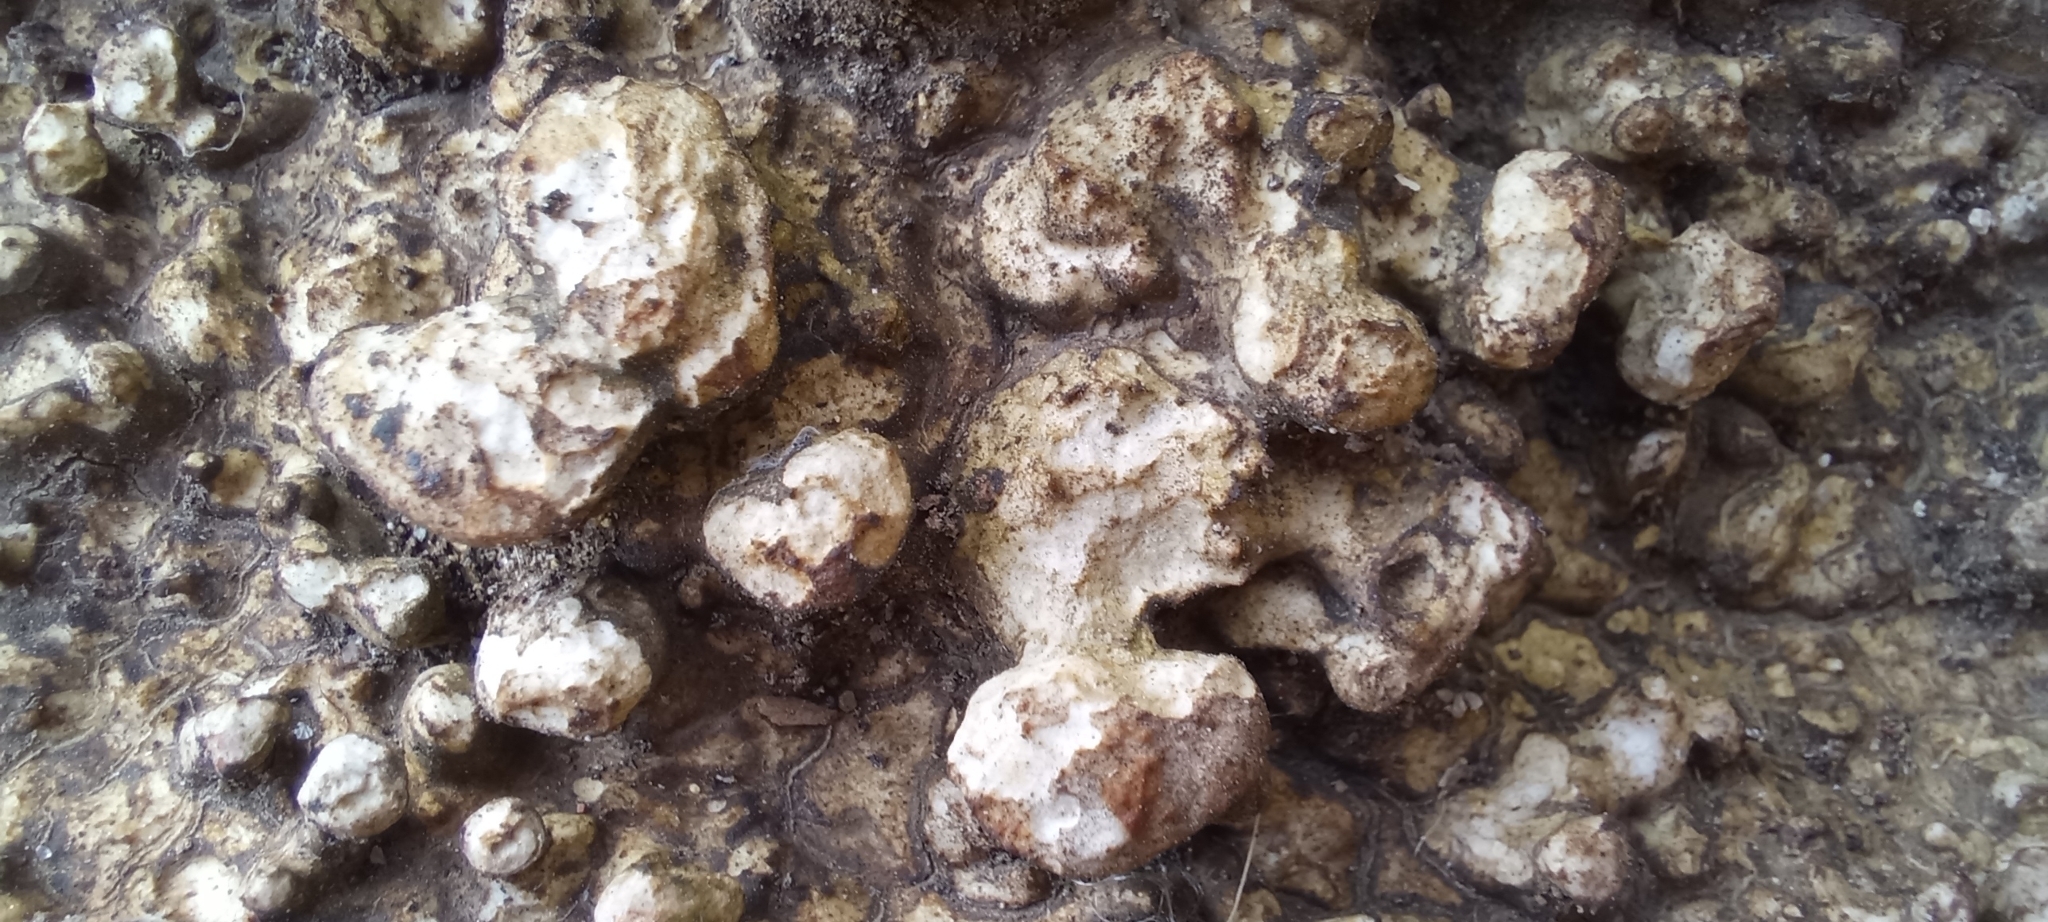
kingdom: Fungi
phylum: Basidiomycota
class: Agaricomycetes
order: Polyporales
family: Polyporaceae
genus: Cellulariella
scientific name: Cellulariella warnieri
